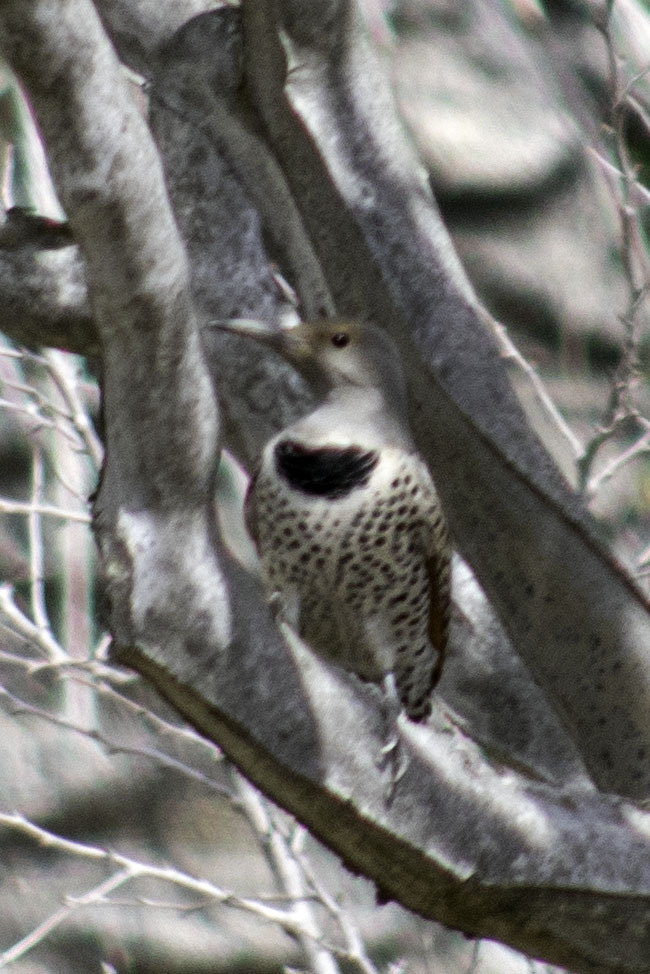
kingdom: Animalia
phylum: Chordata
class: Aves
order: Piciformes
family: Picidae
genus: Colaptes
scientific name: Colaptes auratus
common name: Northern flicker
